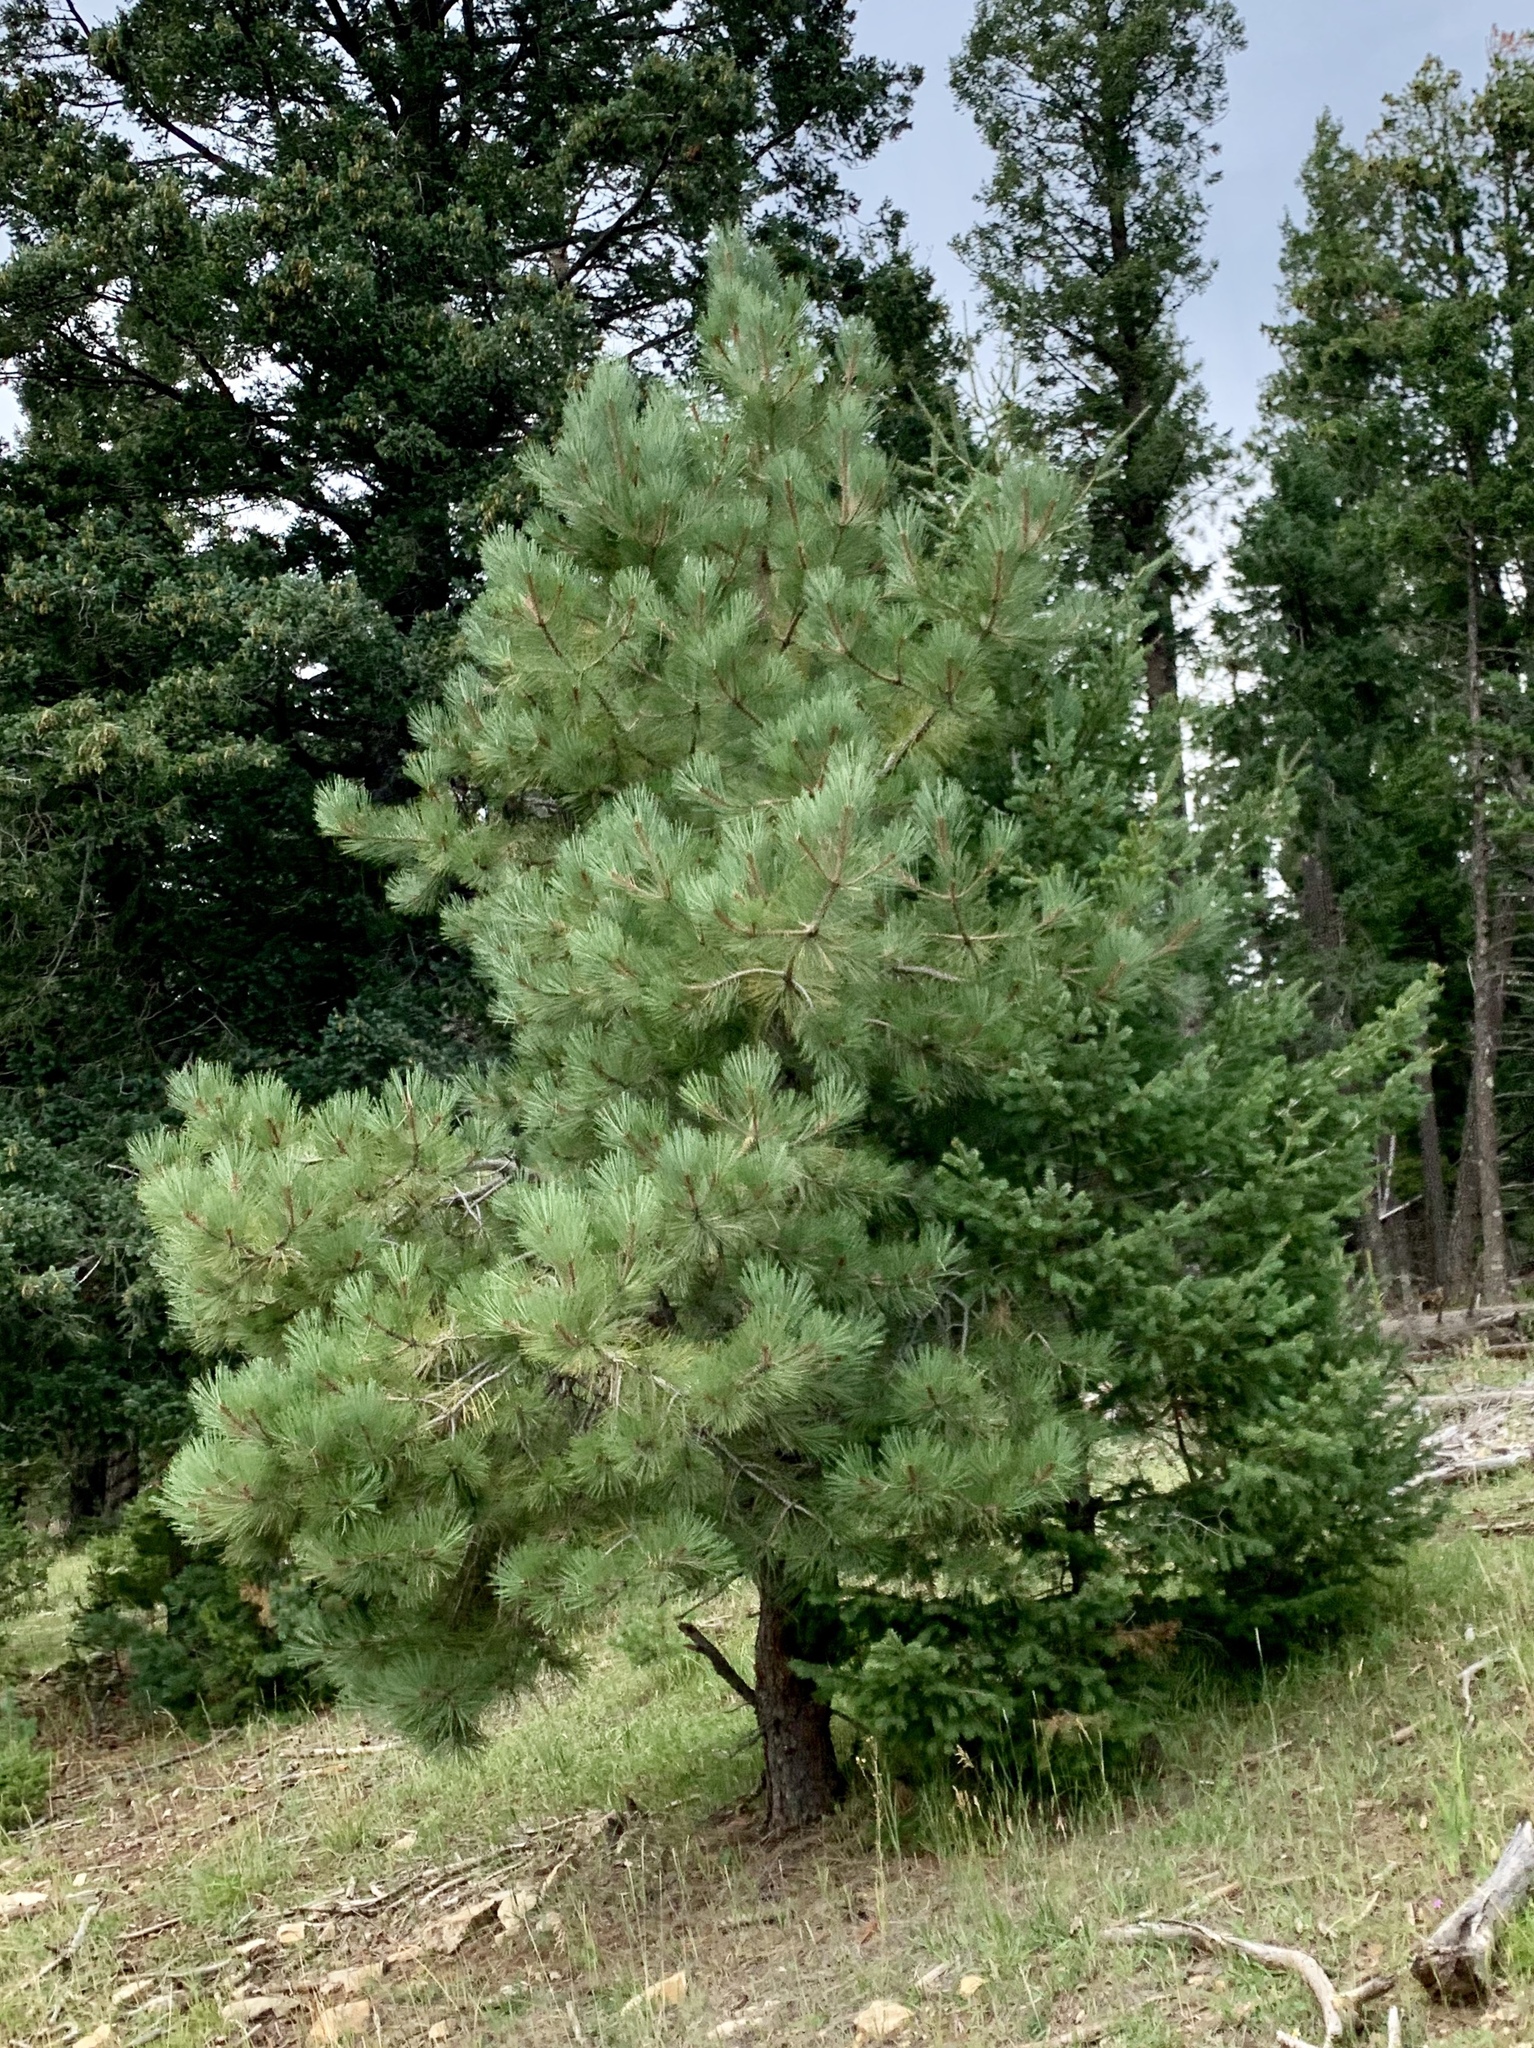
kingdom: Plantae
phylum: Tracheophyta
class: Pinopsida
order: Pinales
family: Pinaceae
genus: Pinus
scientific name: Pinus strobiformis
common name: Southwestern white pine
